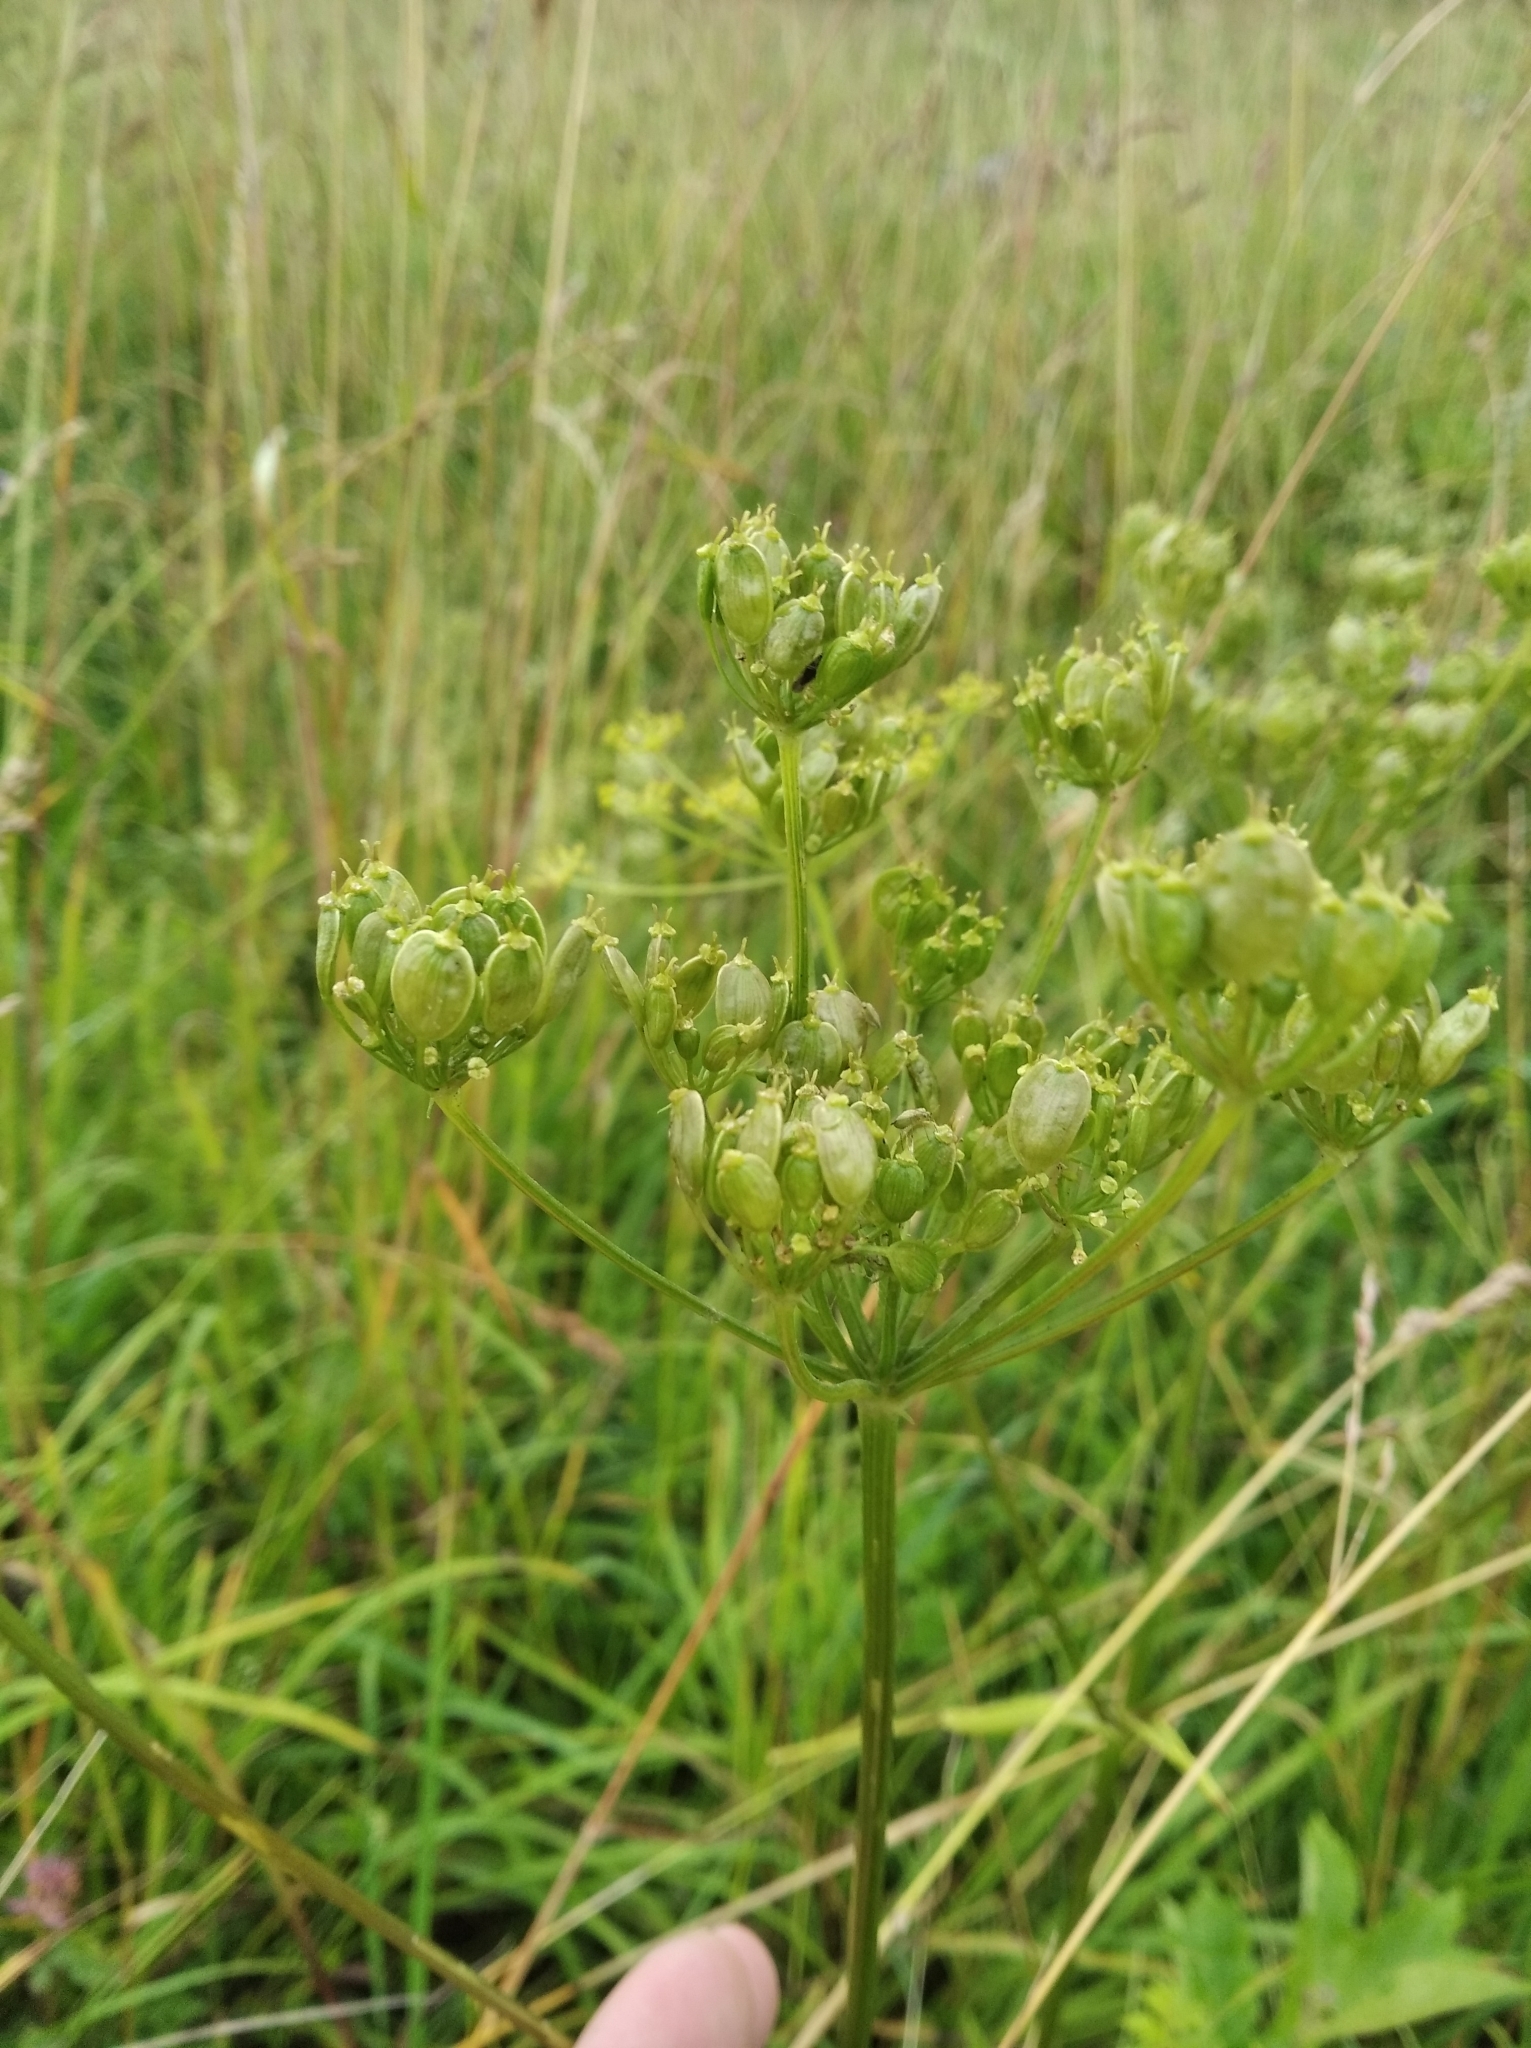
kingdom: Plantae
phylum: Tracheophyta
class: Magnoliopsida
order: Apiales
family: Apiaceae
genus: Heracleum
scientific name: Heracleum sphondylium
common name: Hogweed
